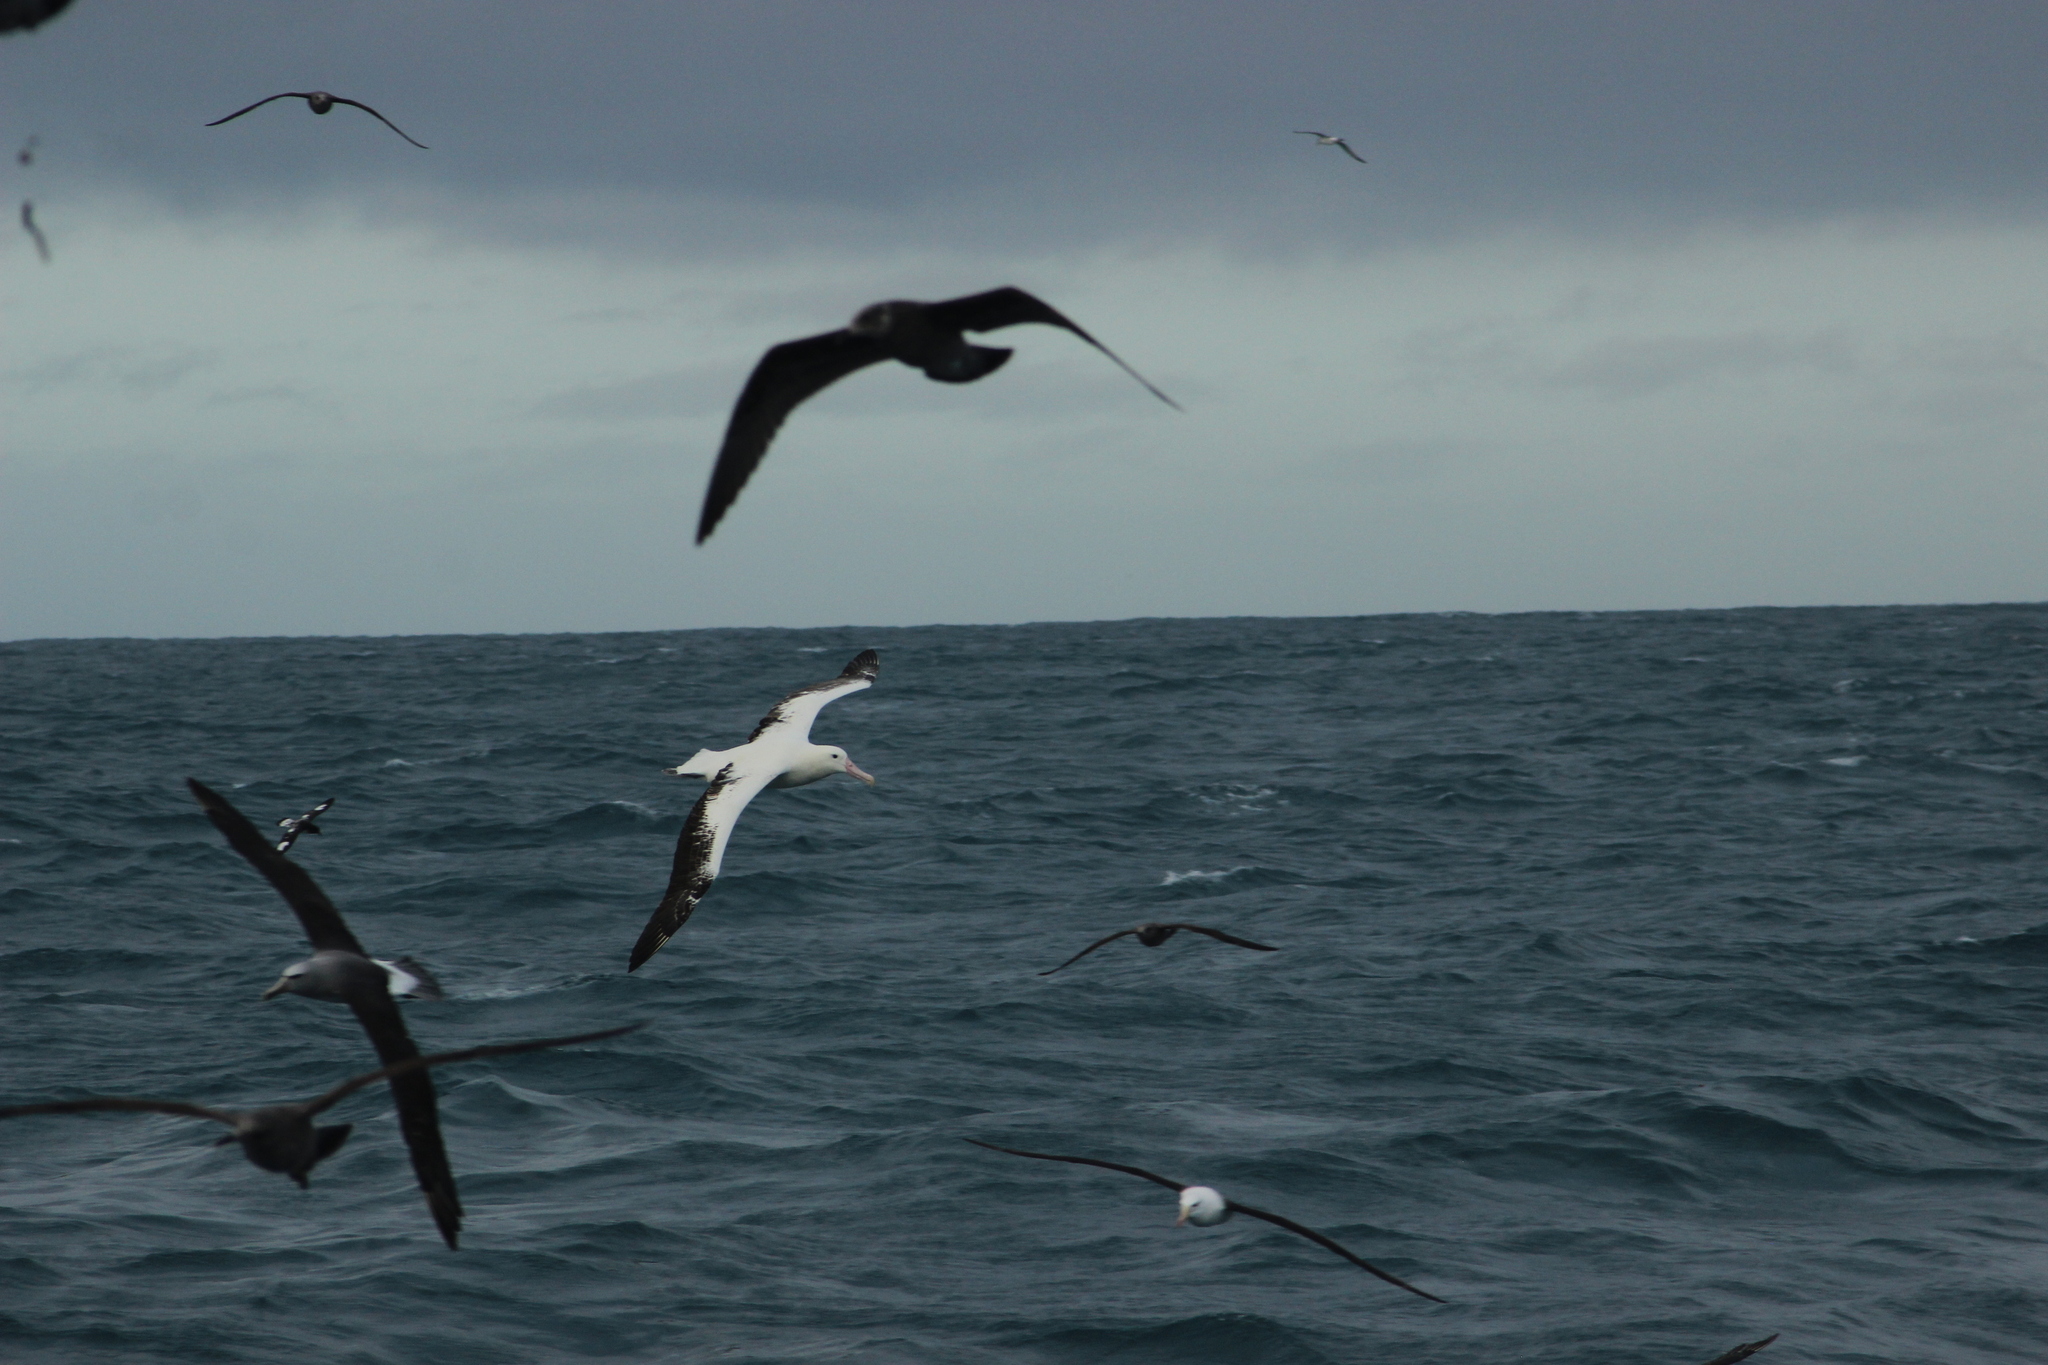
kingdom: Animalia
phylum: Chordata
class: Aves
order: Procellariiformes
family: Diomedeidae
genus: Diomedea
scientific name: Diomedea epomophora
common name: Southern royal albatross
